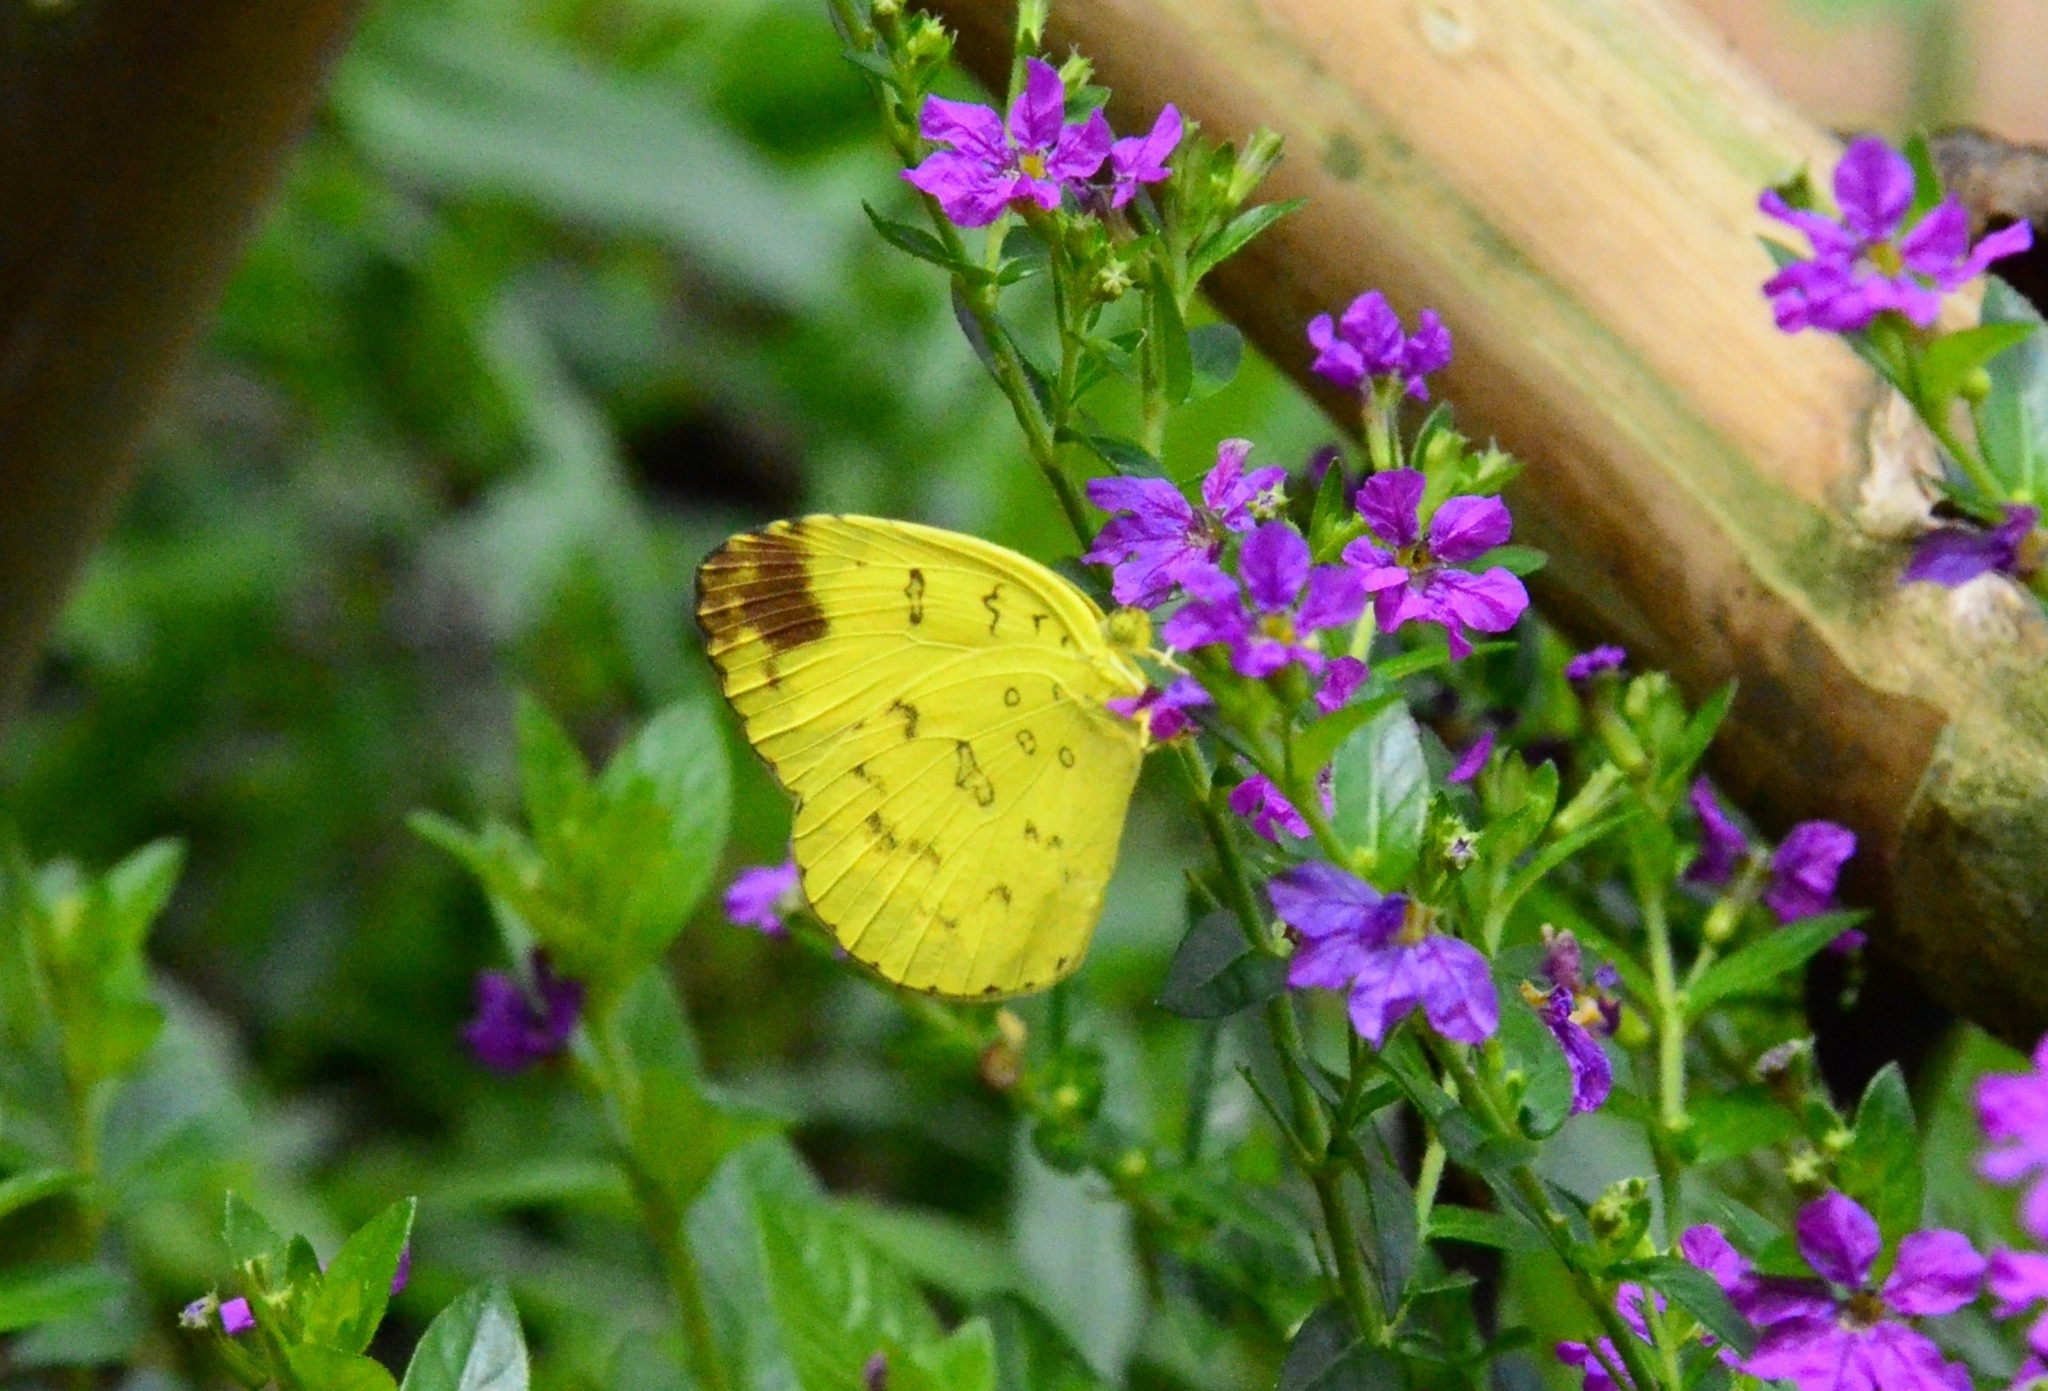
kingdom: Animalia
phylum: Arthropoda
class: Insecta
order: Lepidoptera
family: Pieridae
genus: Eurema
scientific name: Eurema blanda
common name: Three-spot grass yellow
